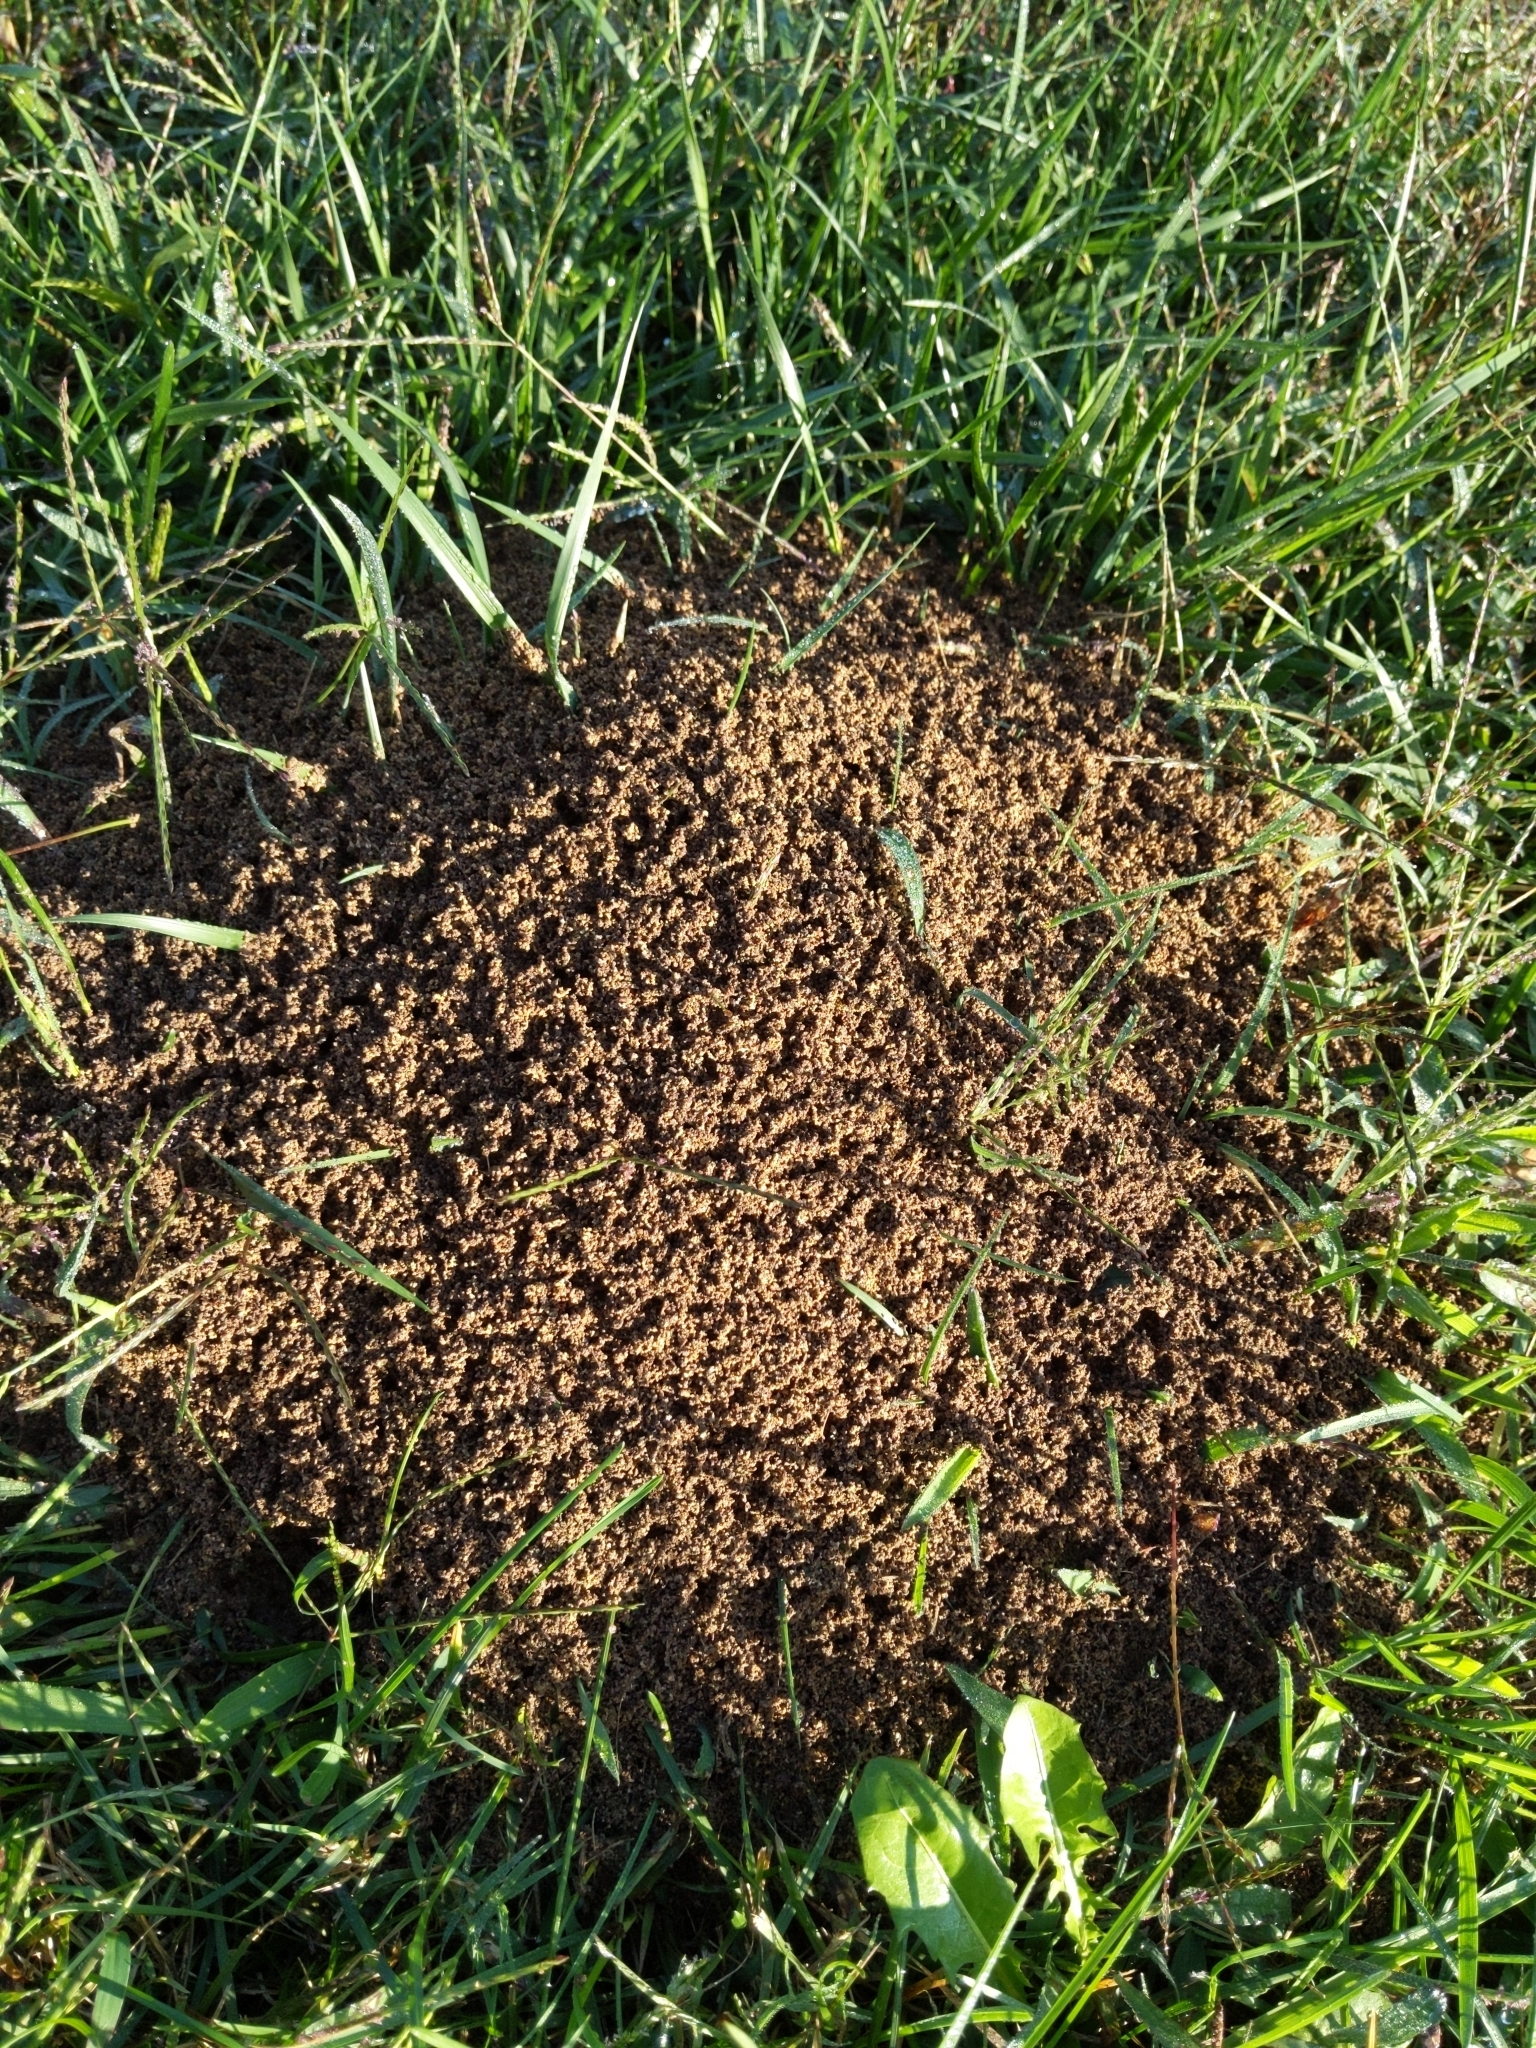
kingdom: Animalia
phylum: Arthropoda
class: Insecta
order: Hymenoptera
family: Formicidae
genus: Solenopsis
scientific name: Solenopsis invicta
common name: Red imported fire ant
